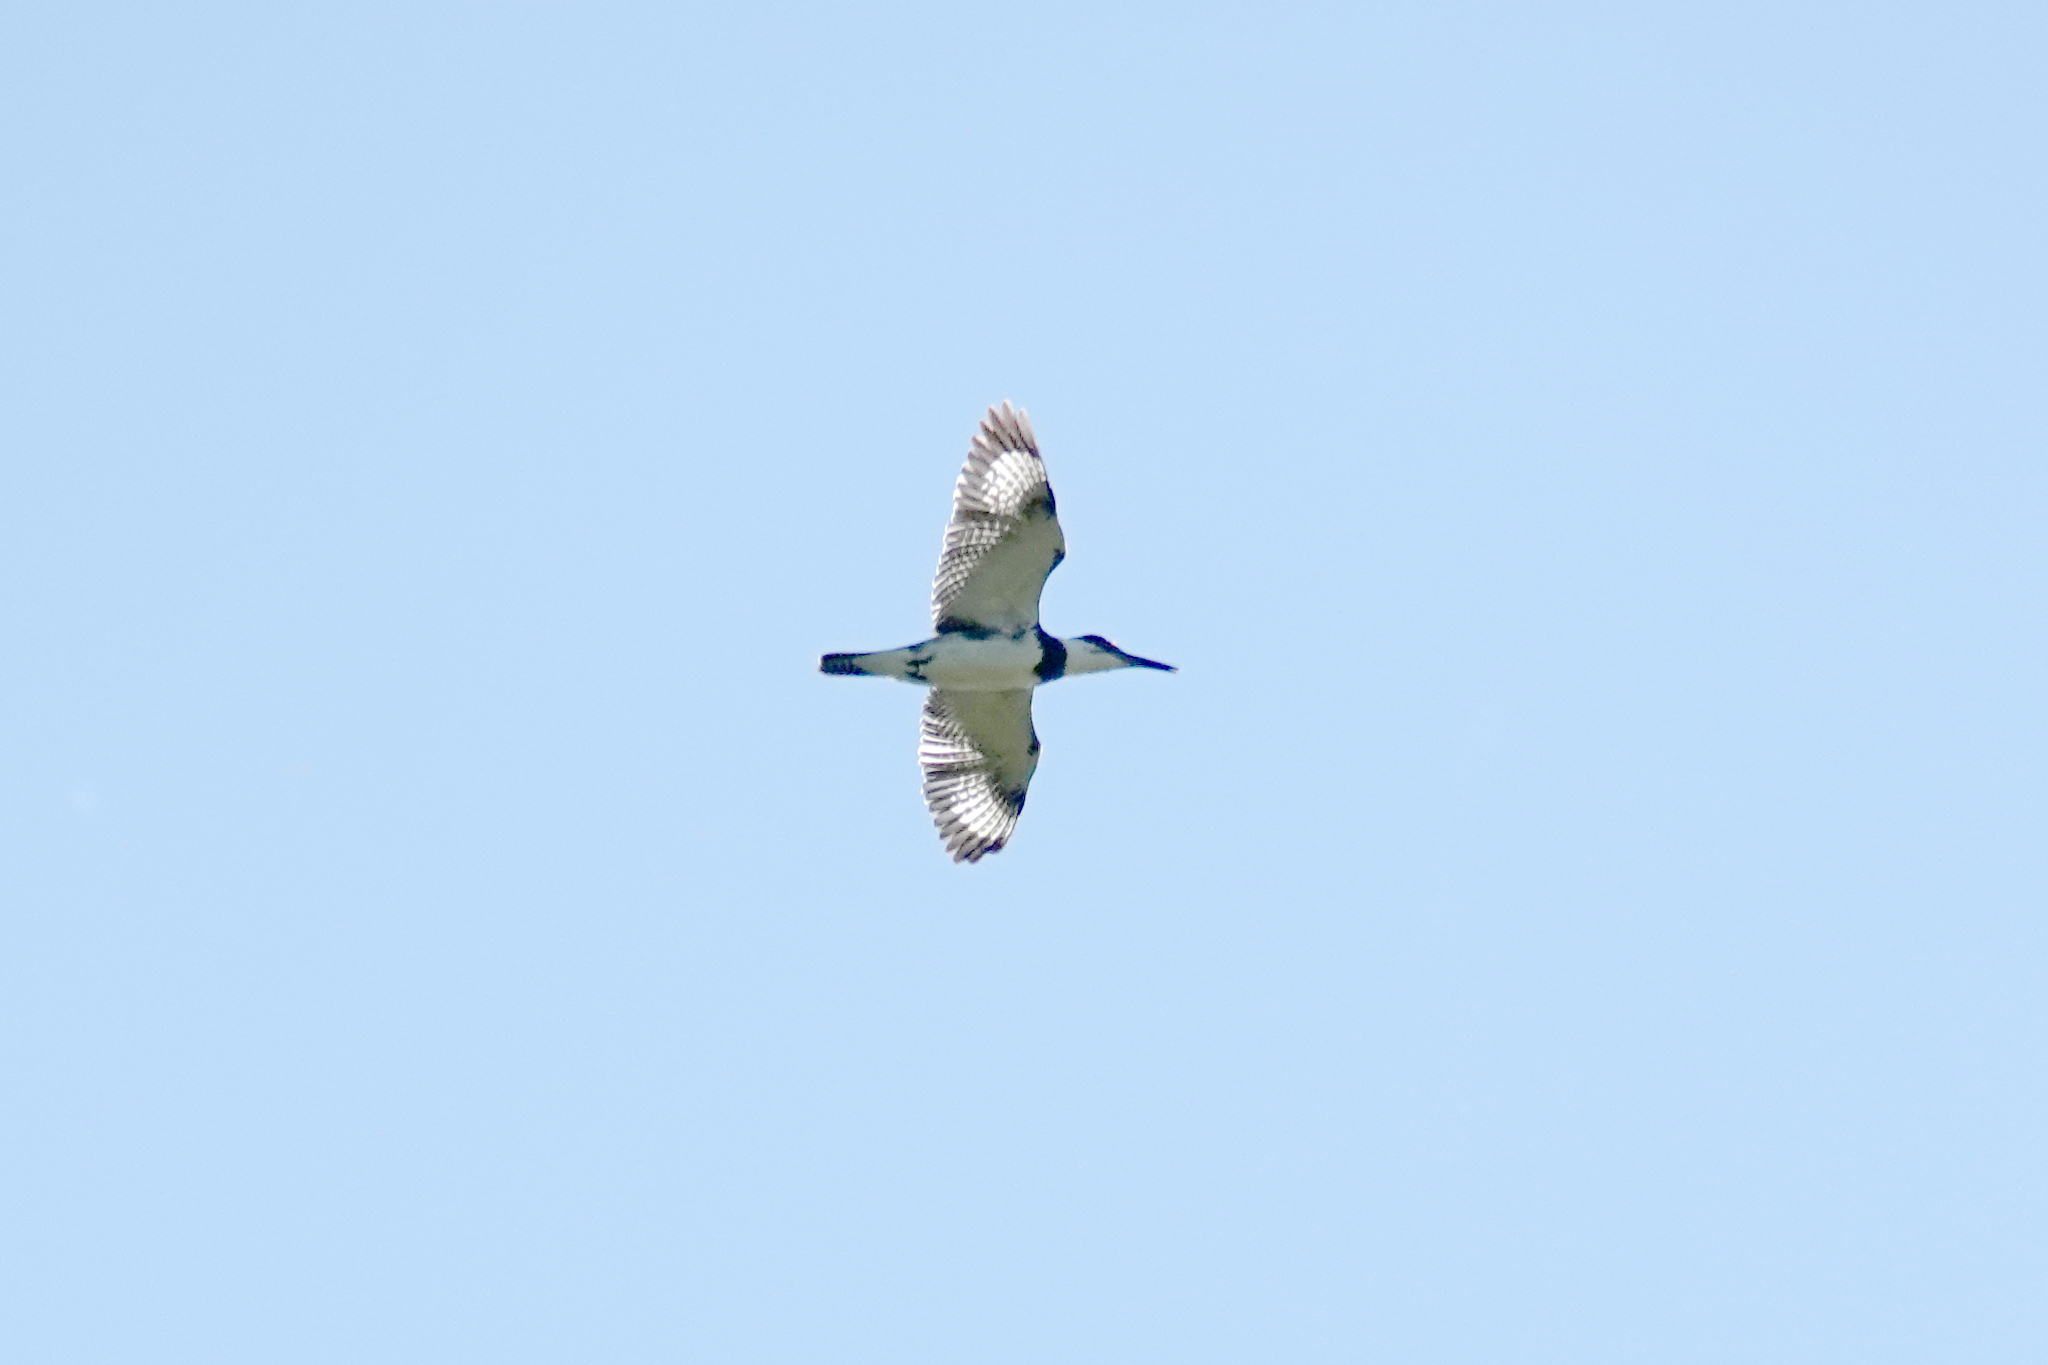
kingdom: Animalia
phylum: Chordata
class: Aves
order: Coraciiformes
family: Alcedinidae
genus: Megaceryle
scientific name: Megaceryle alcyon
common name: Belted kingfisher
